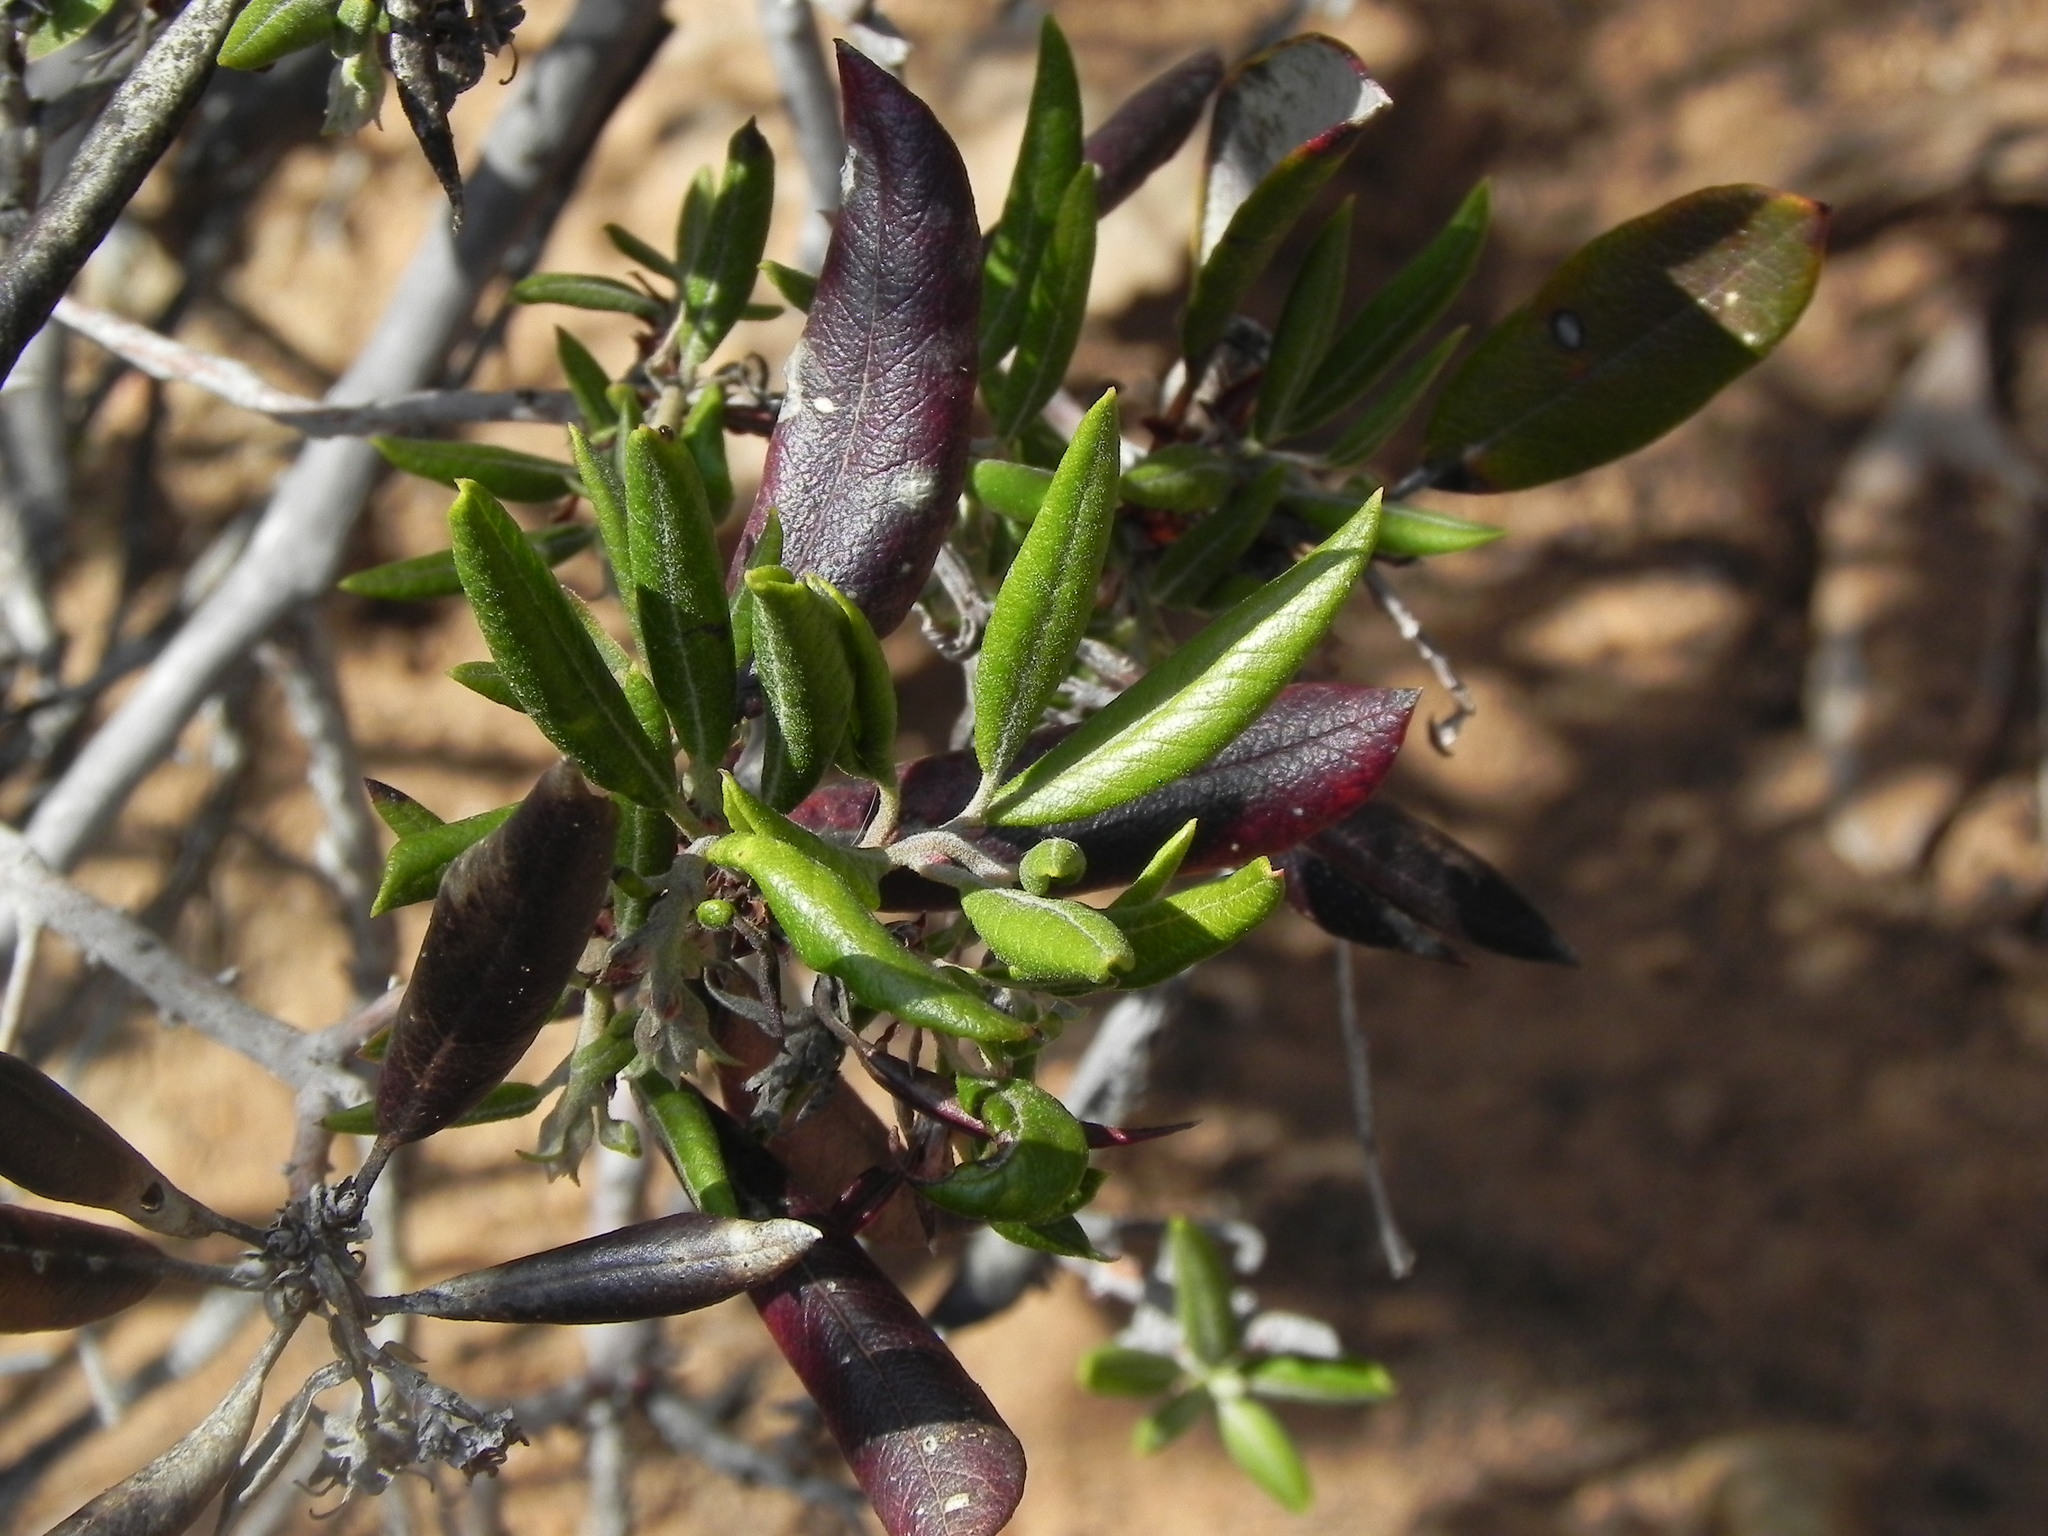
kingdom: Plantae
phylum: Tracheophyta
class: Magnoliopsida
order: Ericales
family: Ericaceae
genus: Arctostaphylos
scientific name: Arctostaphylos bicolor
